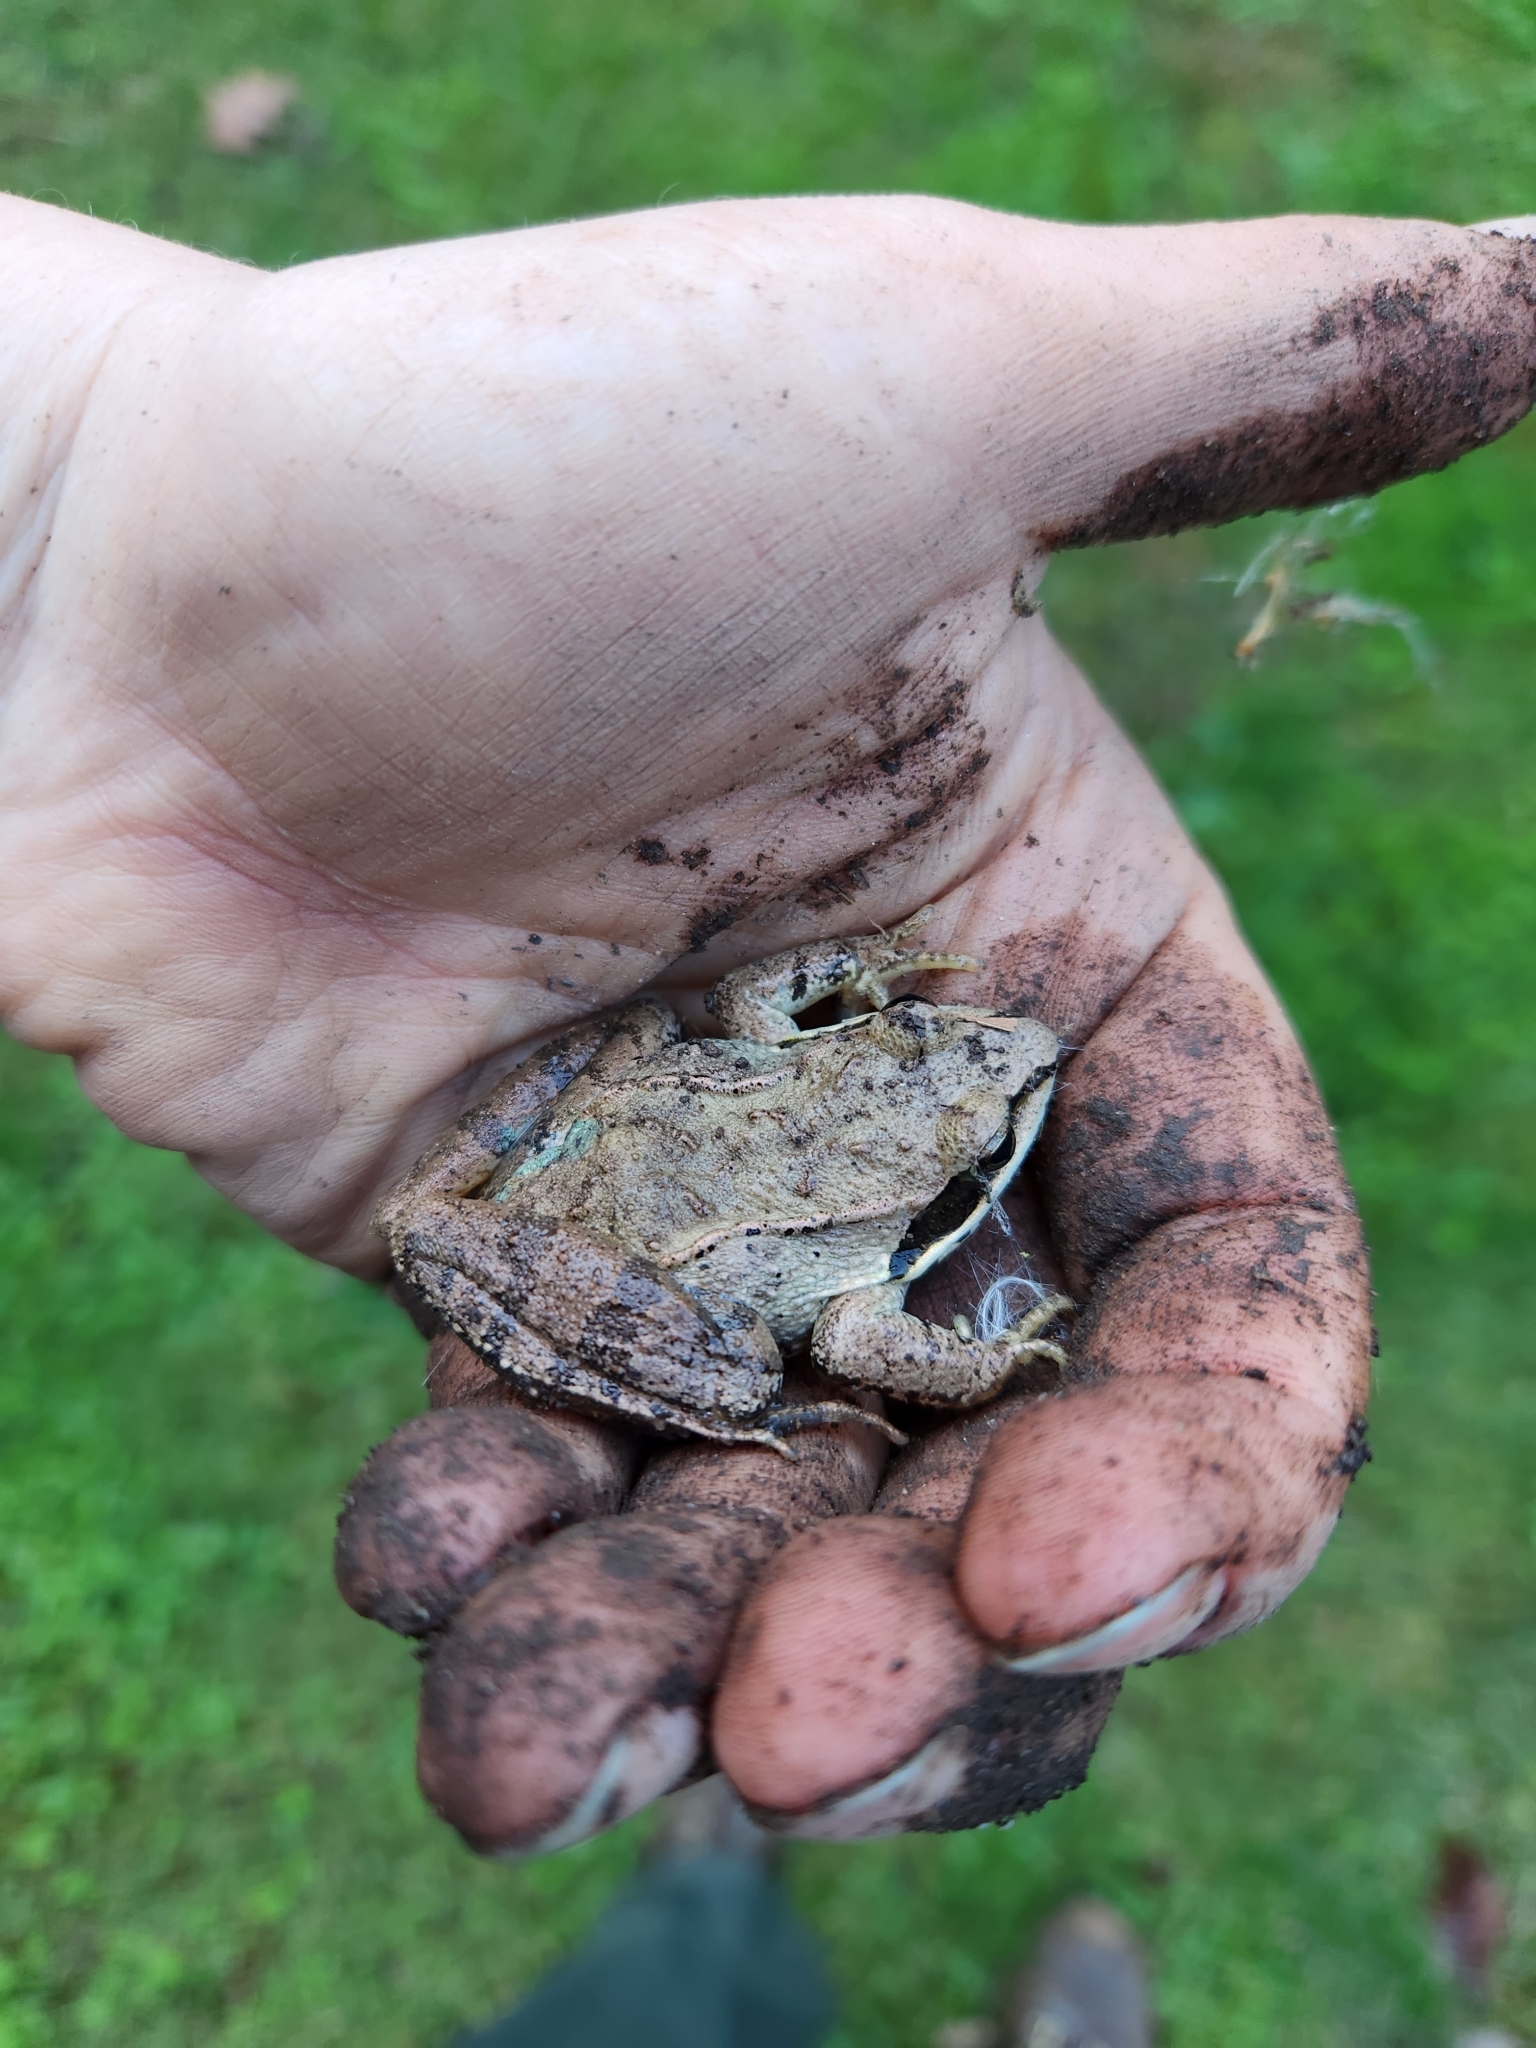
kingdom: Animalia
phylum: Chordata
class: Amphibia
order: Anura
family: Ranidae
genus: Lithobates
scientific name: Lithobates sylvaticus
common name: Wood frog
